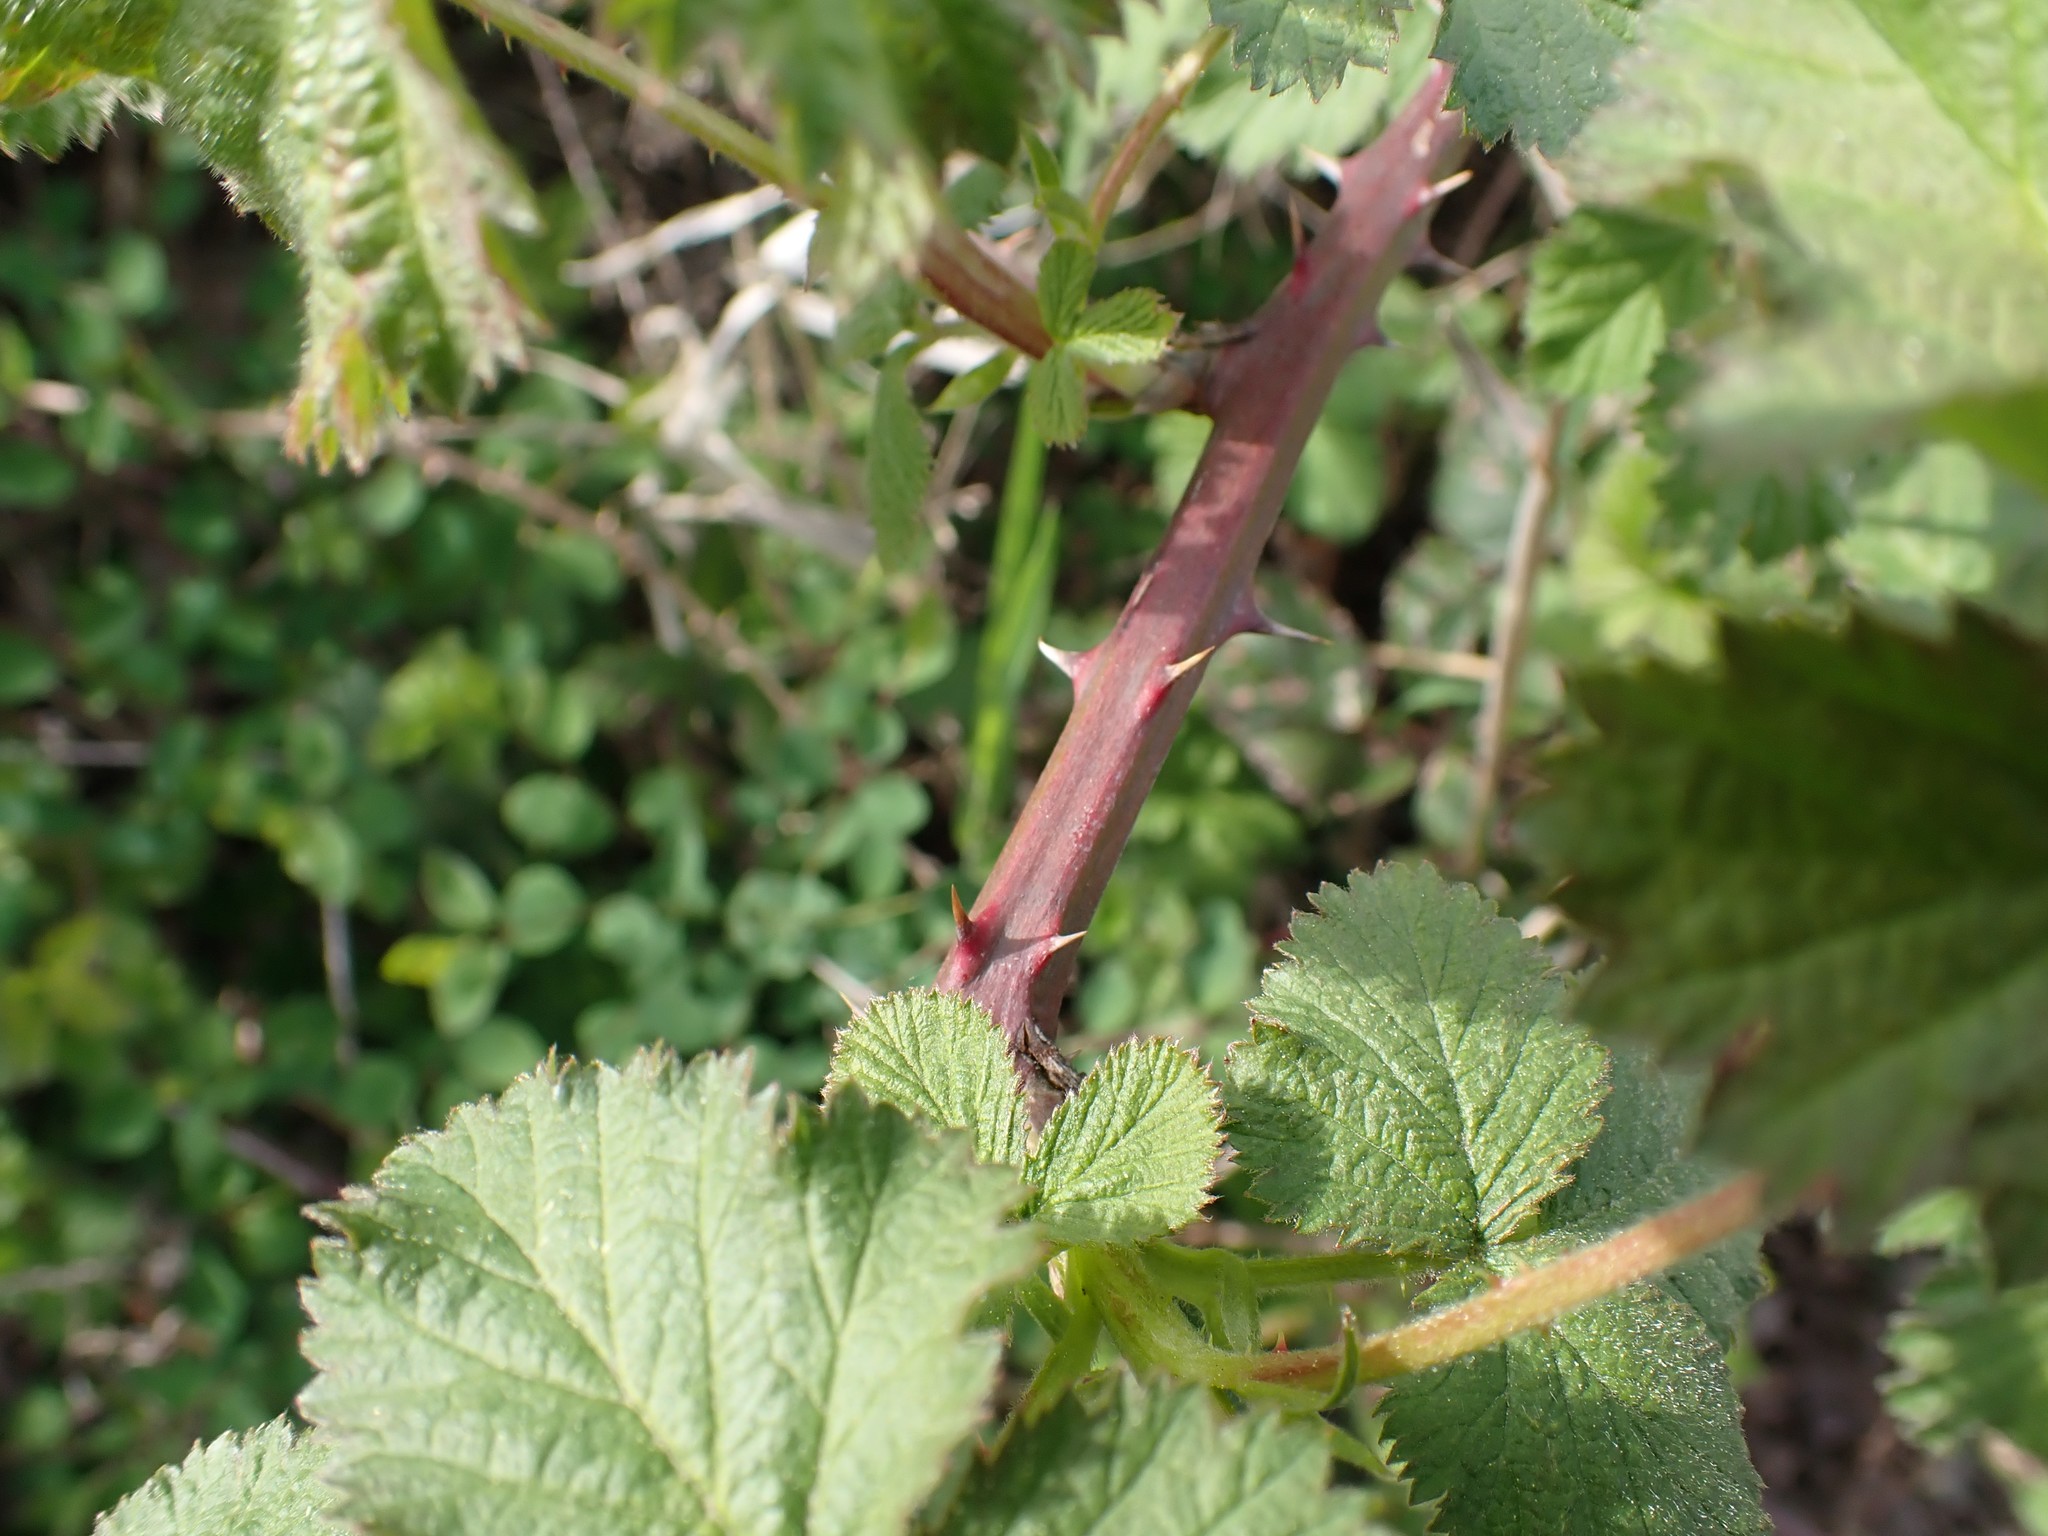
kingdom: Plantae
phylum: Tracheophyta
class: Magnoliopsida
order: Rosales
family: Rosaceae
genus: Rubus
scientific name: Rubus bifrons
